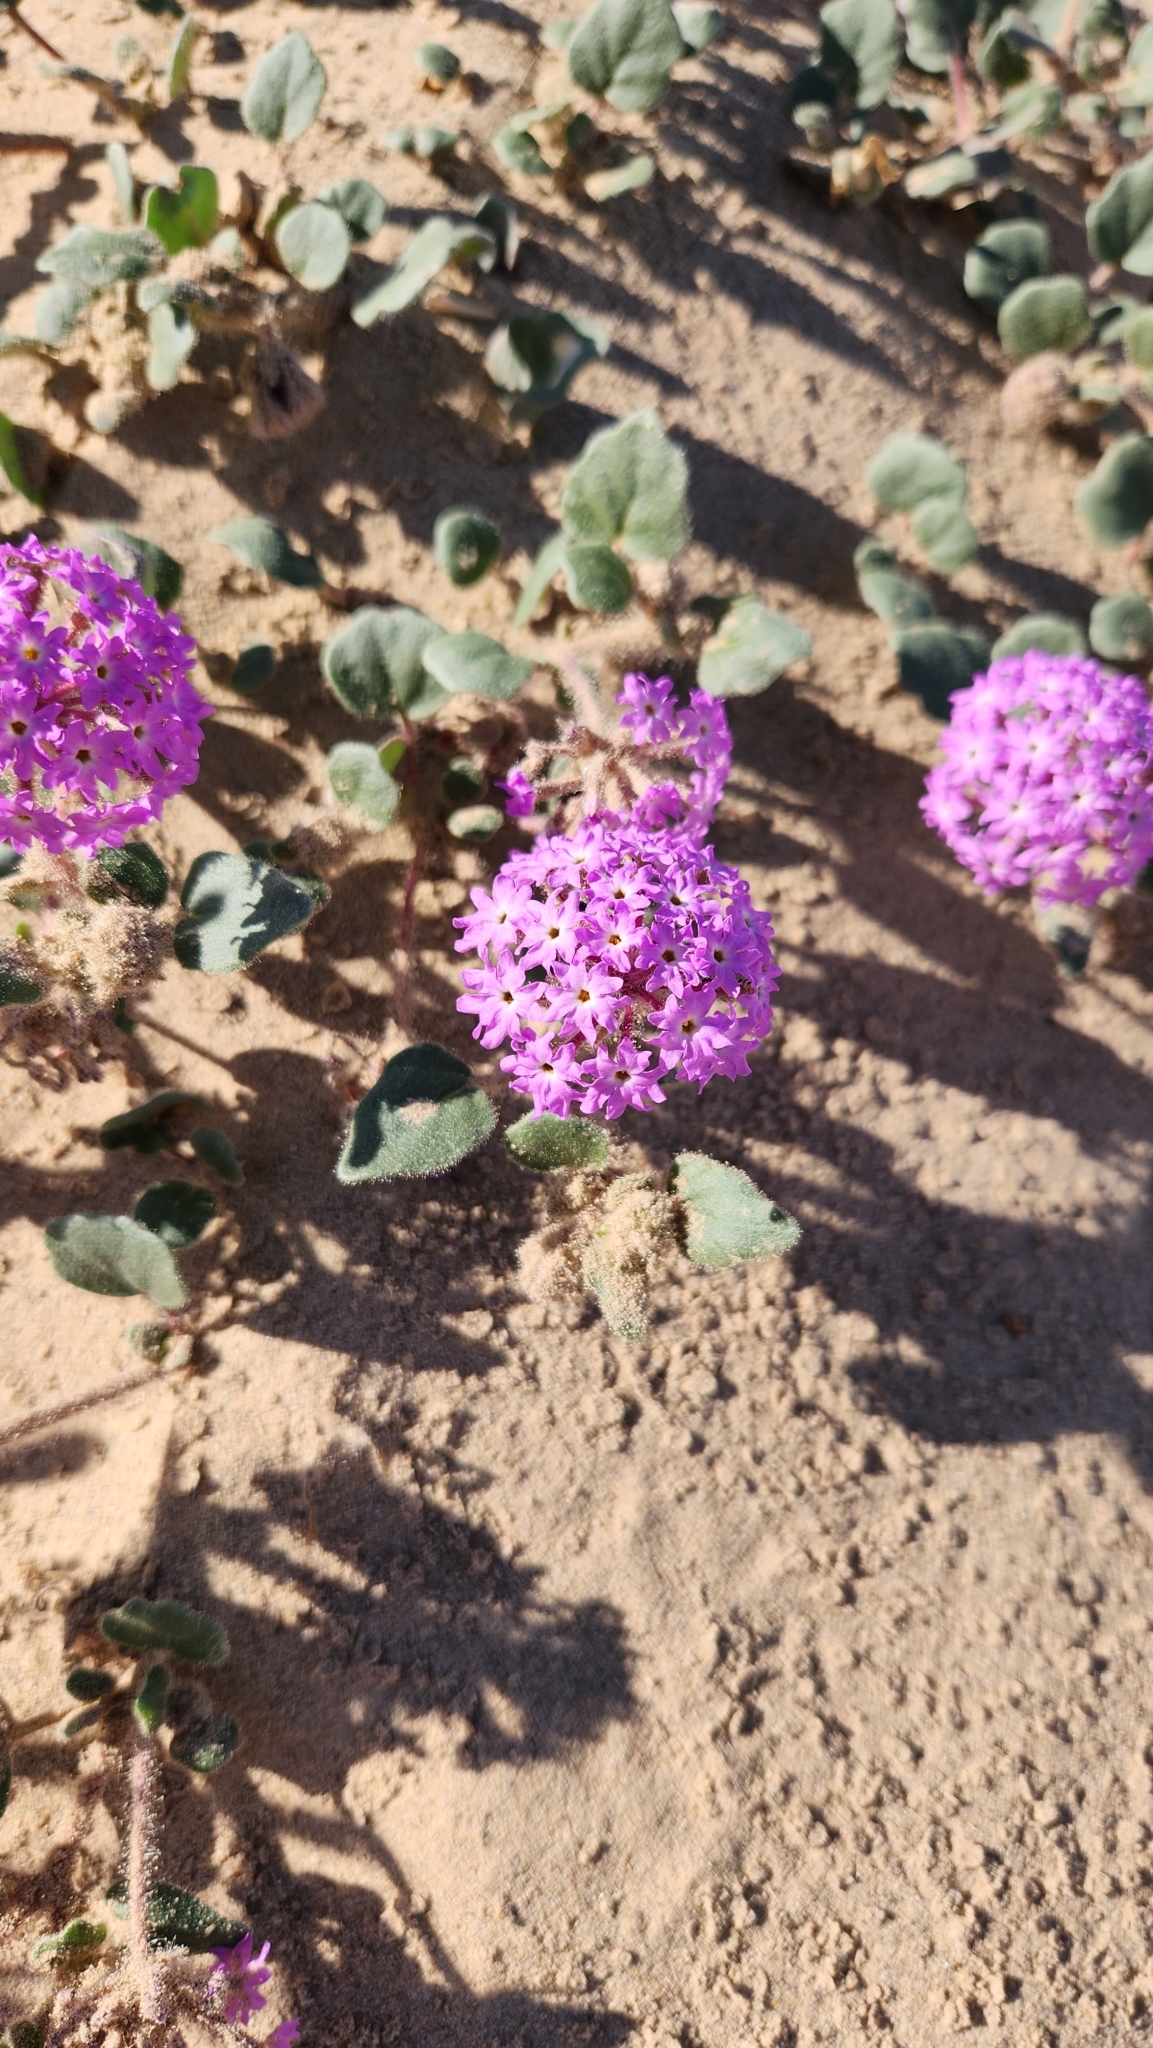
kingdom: Plantae
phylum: Tracheophyta
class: Magnoliopsida
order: Caryophyllales
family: Nyctaginaceae
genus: Abronia
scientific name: Abronia villosa
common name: Desert sand-verbena
